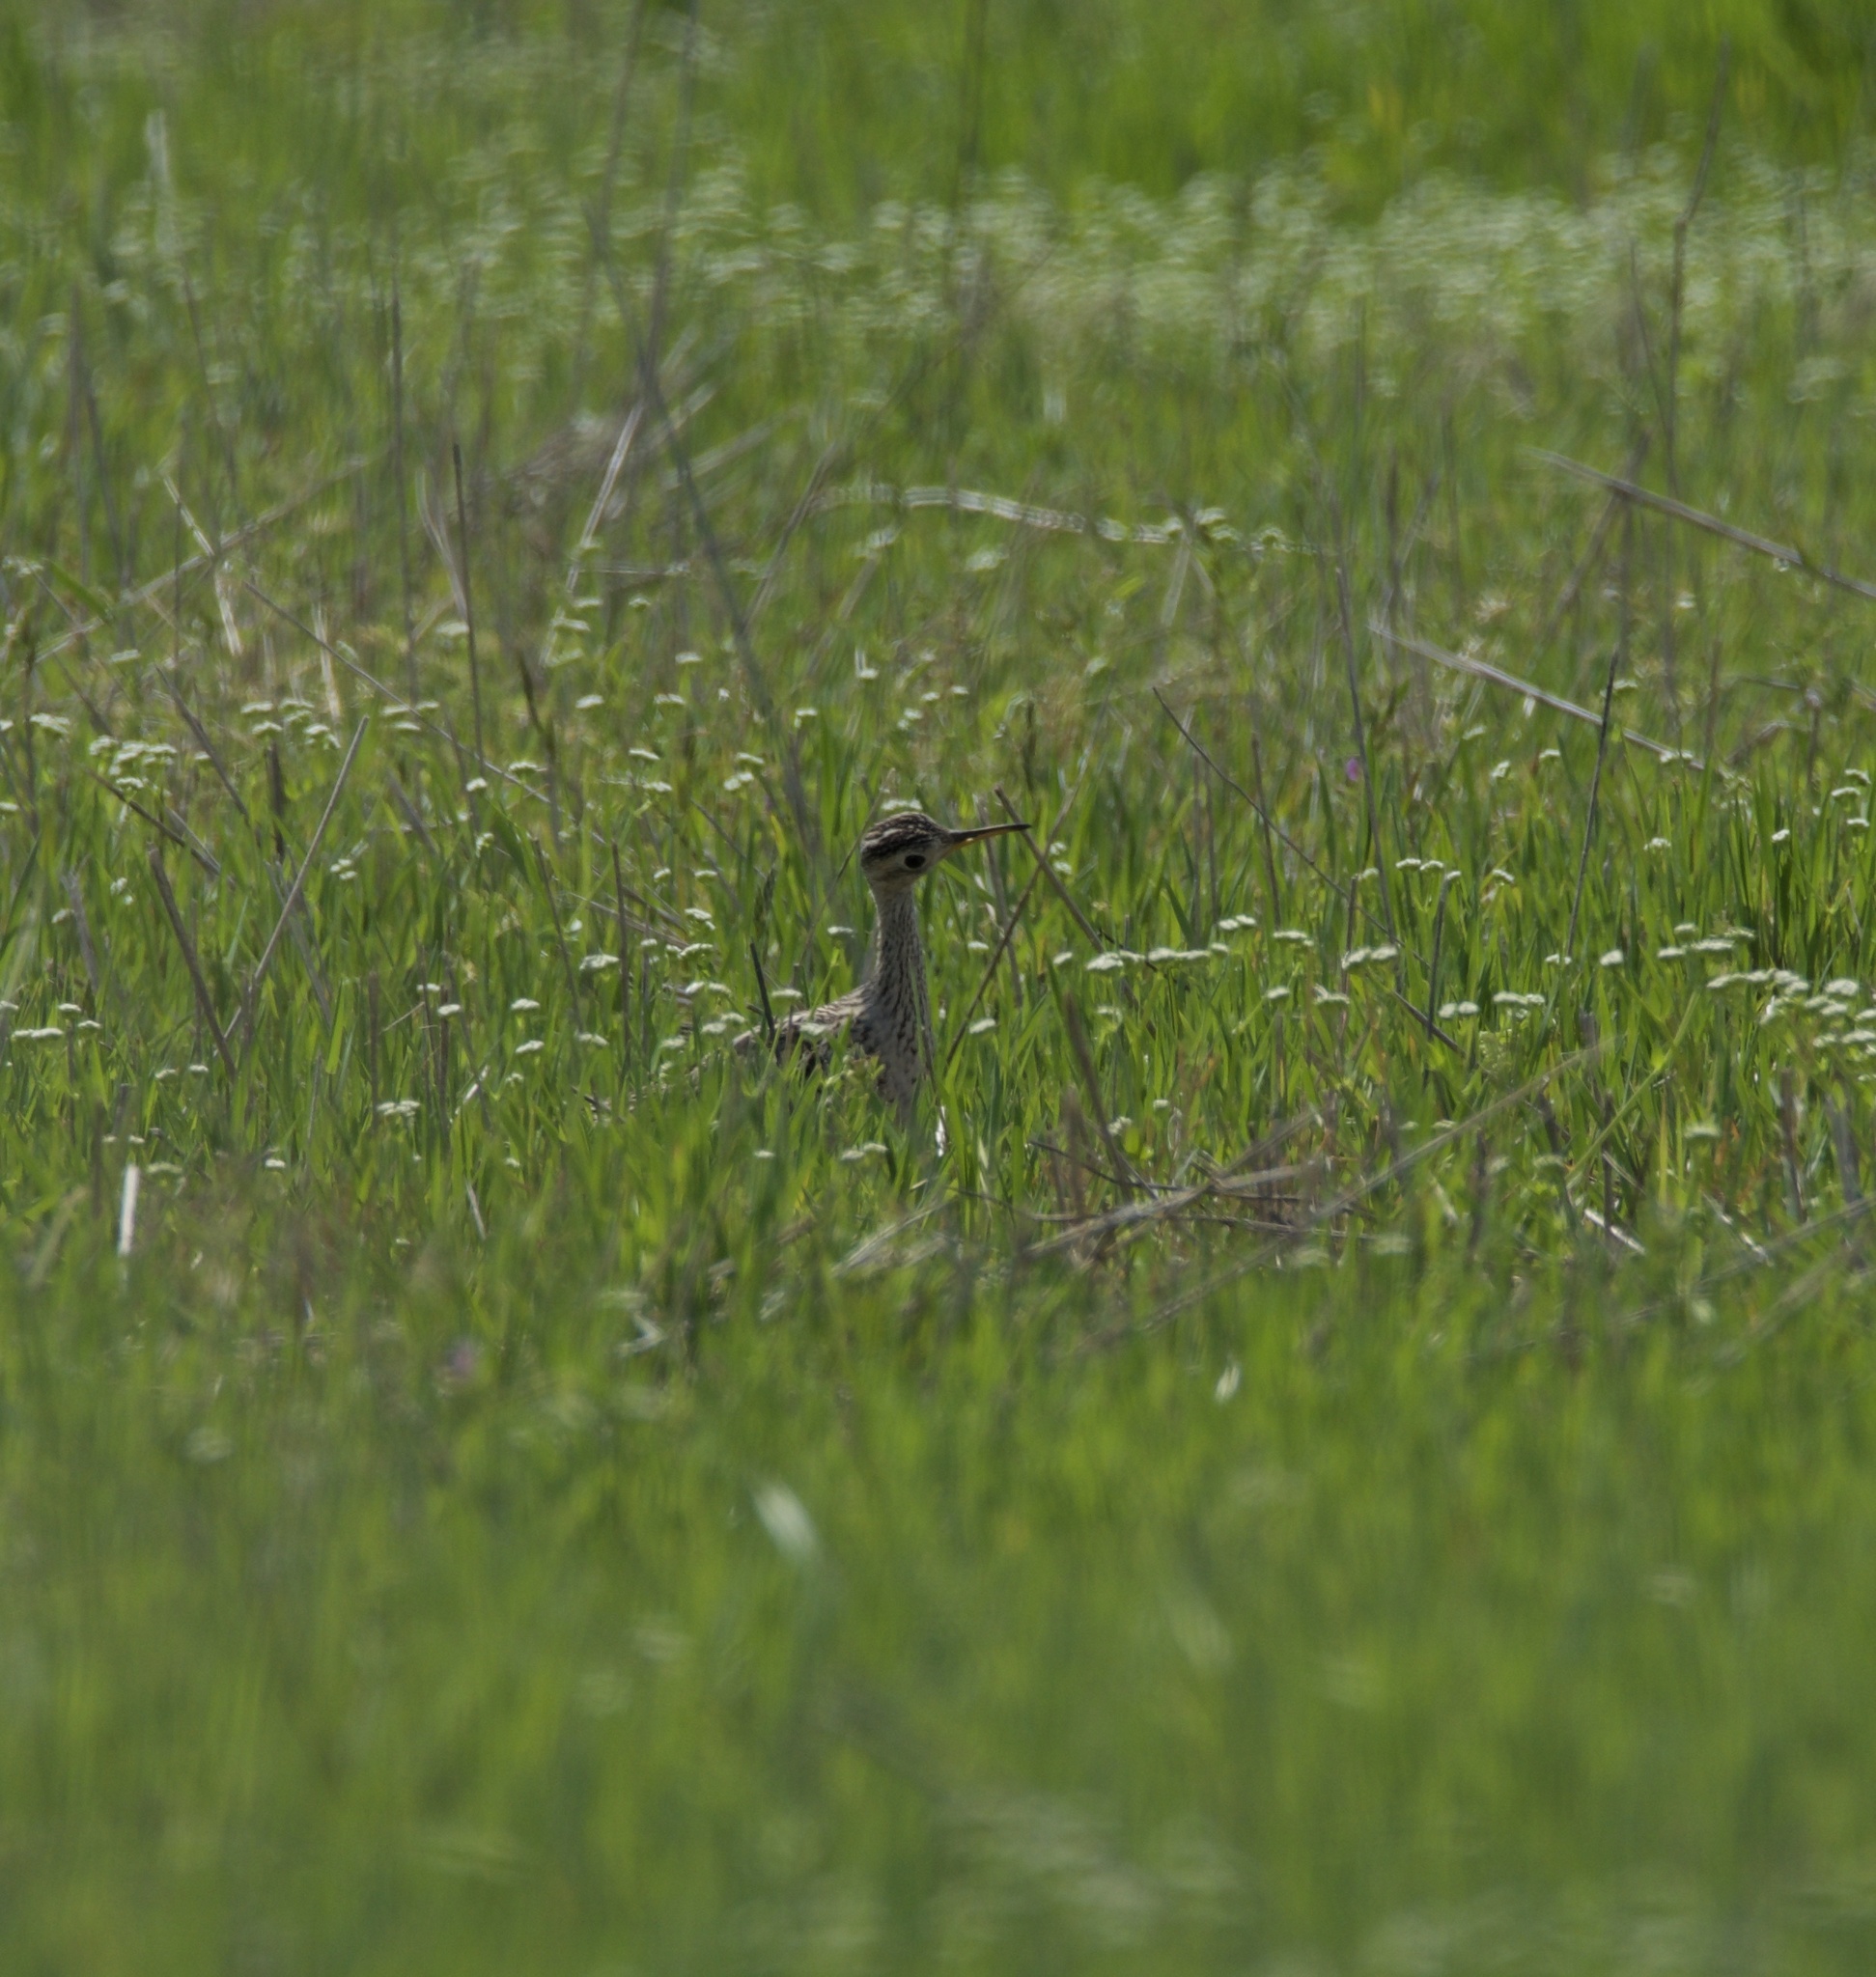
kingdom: Animalia
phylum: Chordata
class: Aves
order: Charadriiformes
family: Scolopacidae
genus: Bartramia
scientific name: Bartramia longicauda
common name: Upland sandpiper
